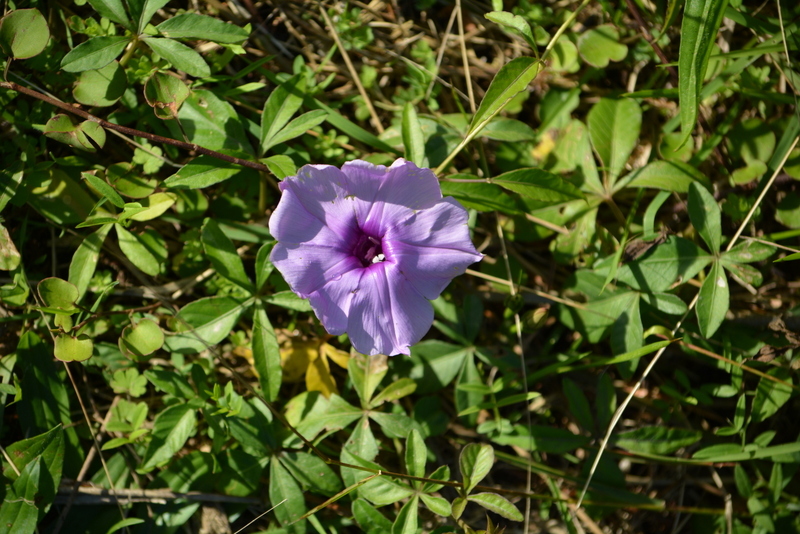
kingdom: Plantae
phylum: Tracheophyta
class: Magnoliopsida
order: Solanales
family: Convolvulaceae
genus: Ipomoea
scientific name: Ipomoea cairica
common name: Mile a minute vine
